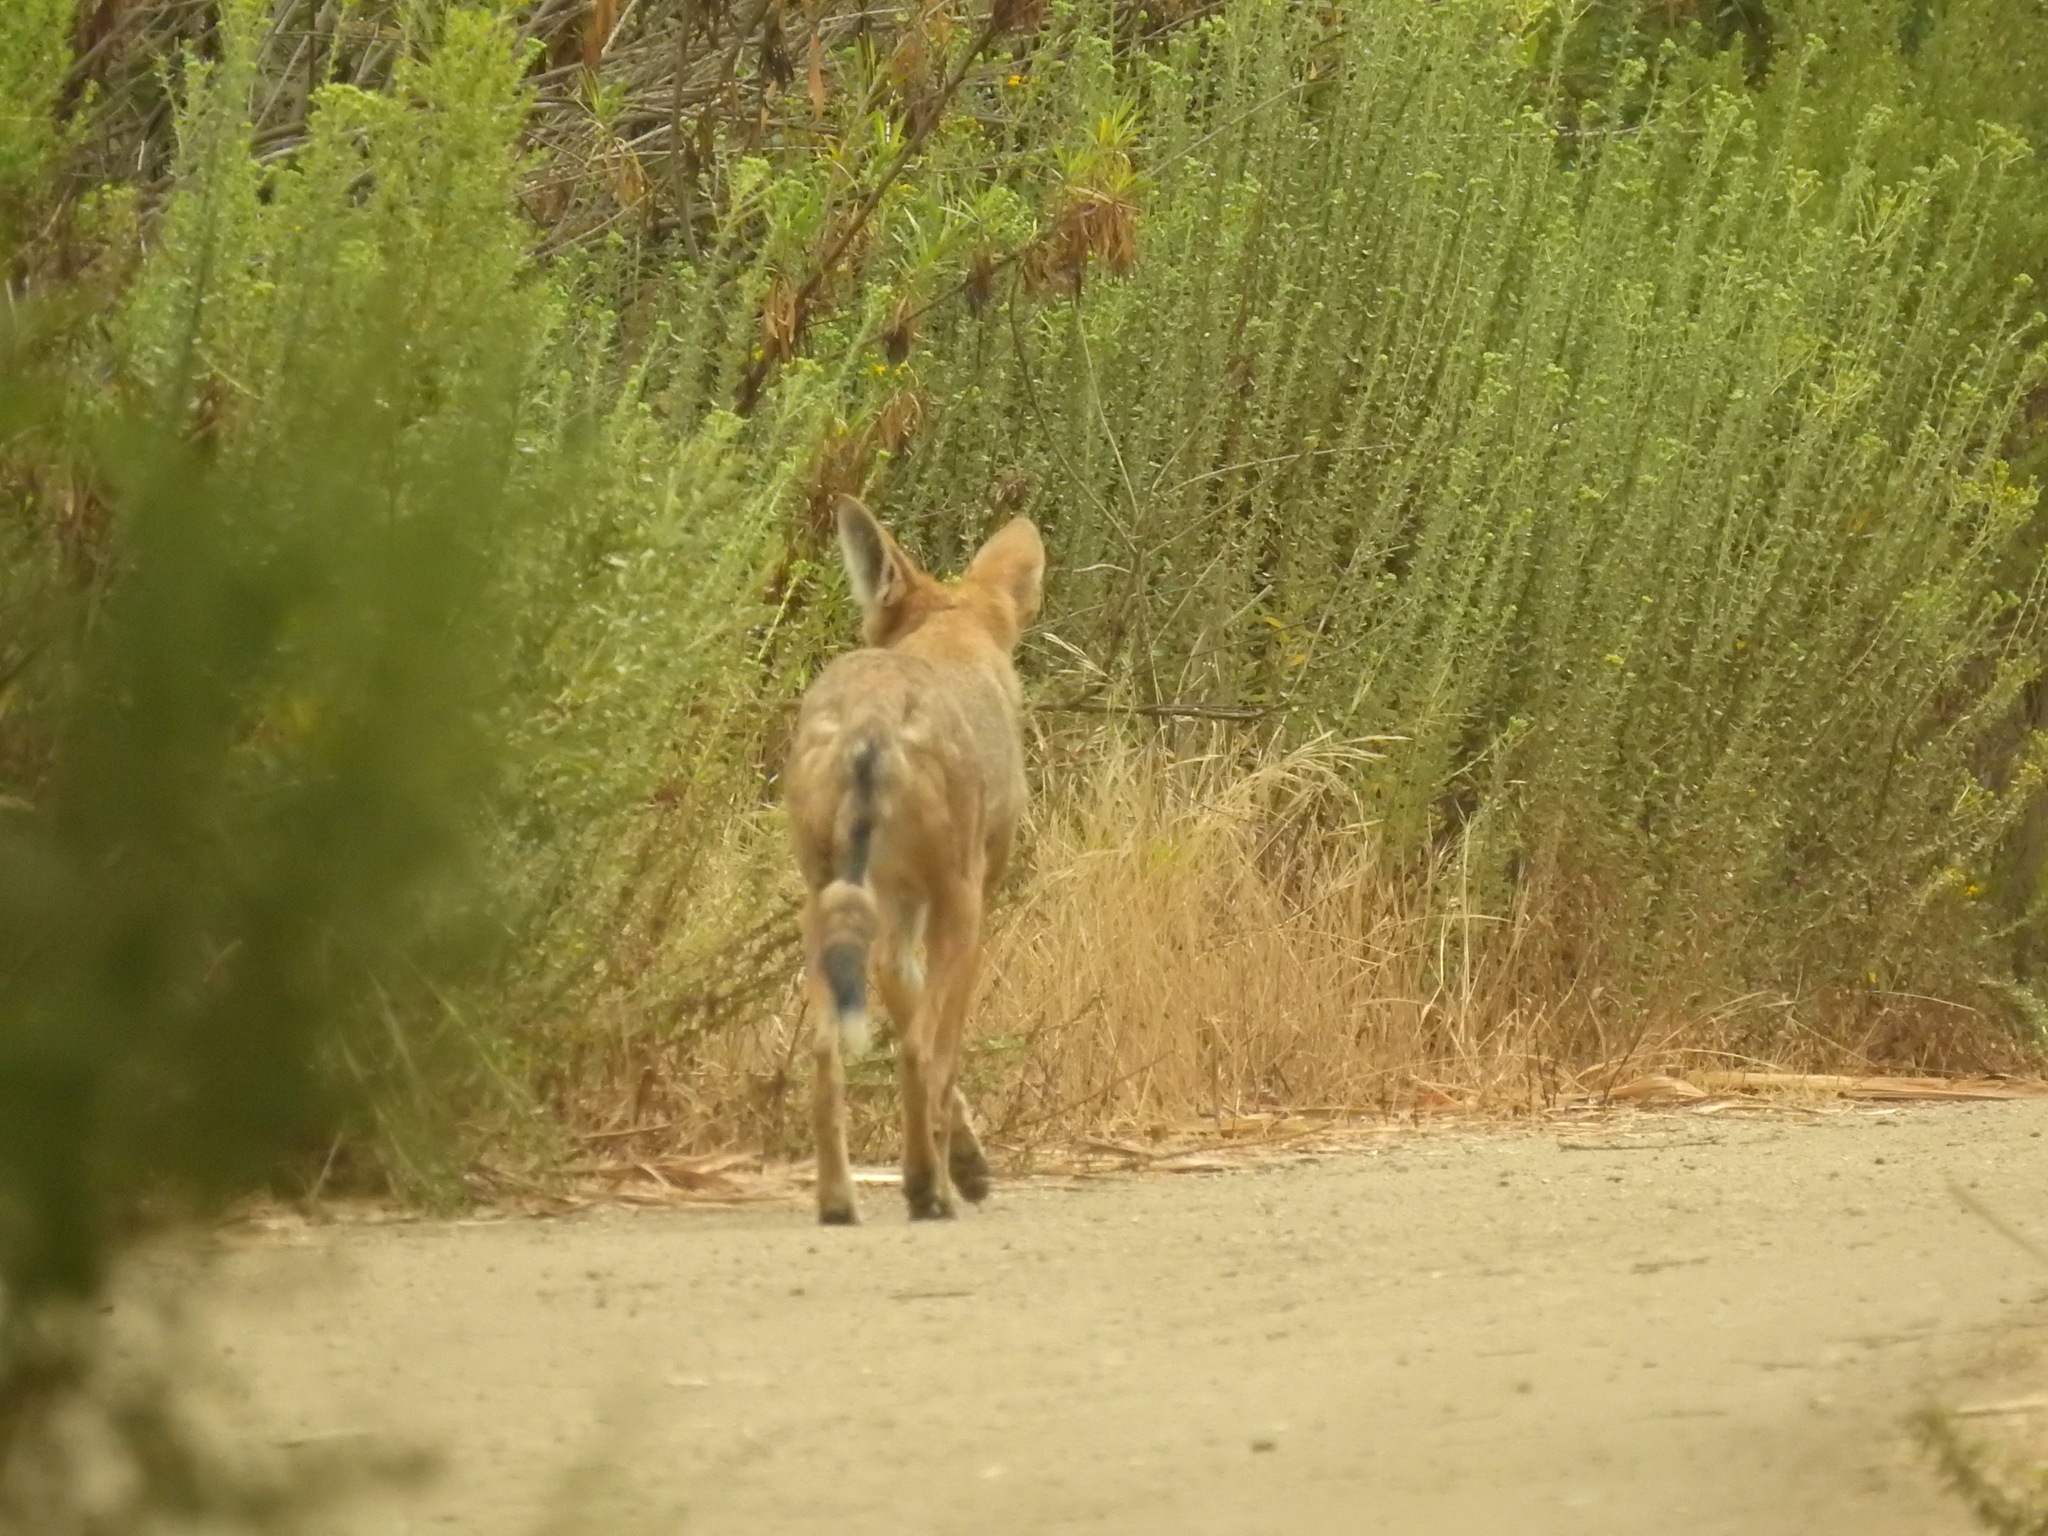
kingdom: Animalia
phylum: Chordata
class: Mammalia
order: Carnivora
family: Canidae
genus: Canis
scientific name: Canis latrans
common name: Coyote
